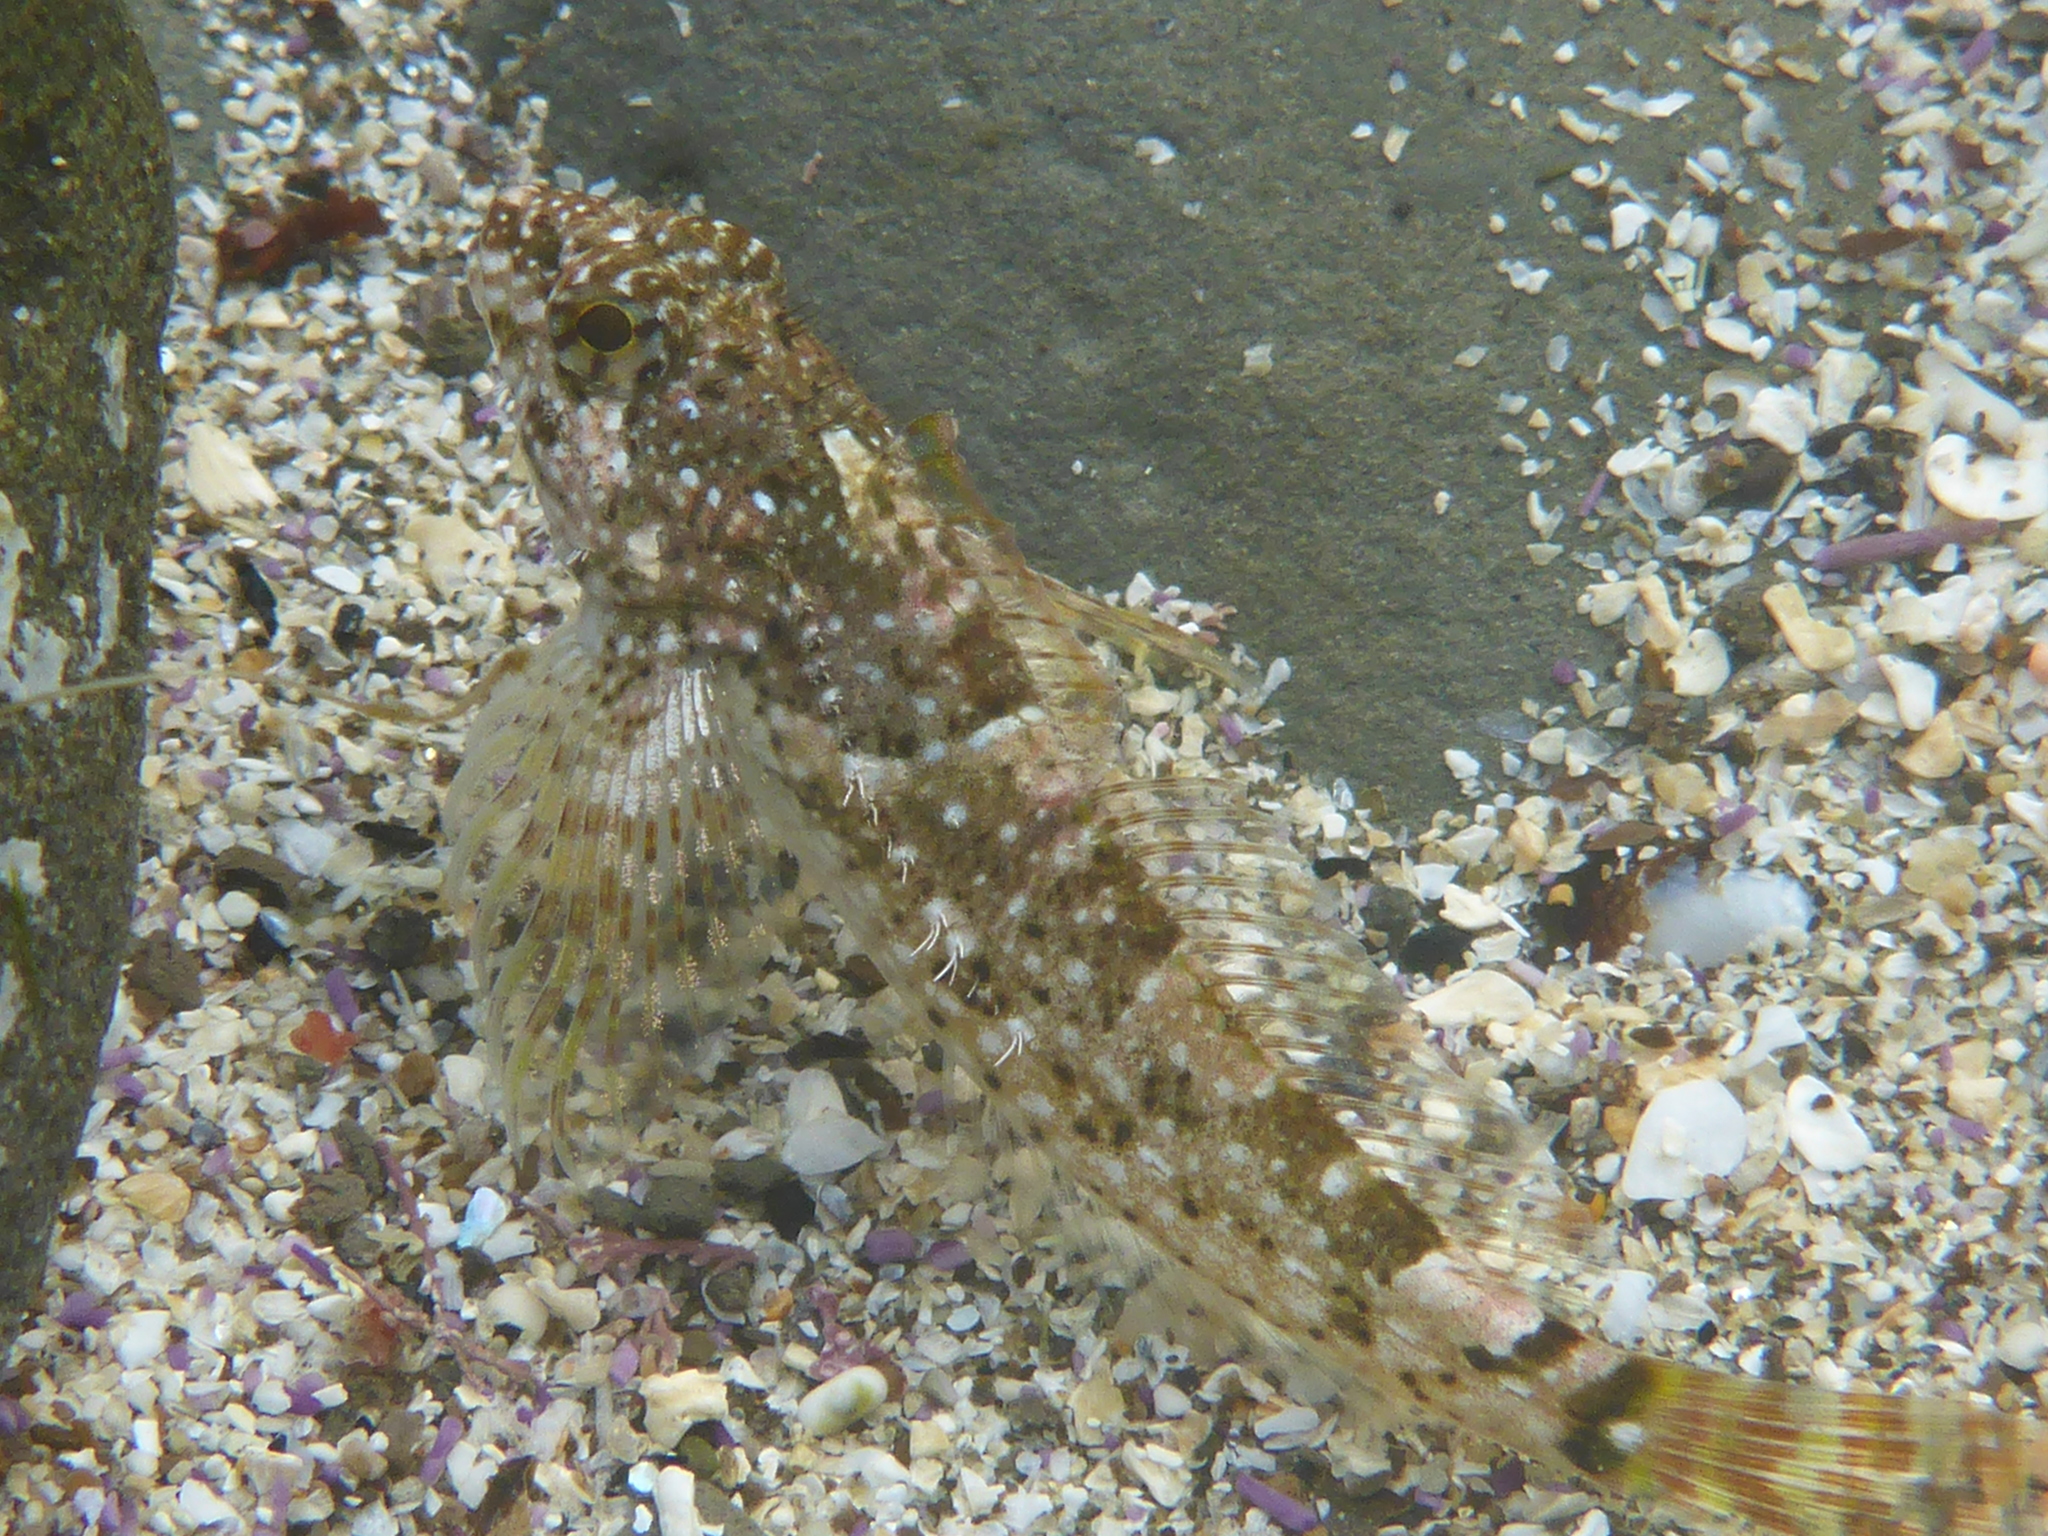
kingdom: Animalia
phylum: Chordata
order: Scorpaeniformes
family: Cottidae
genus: Clinocottus
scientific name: Clinocottus analis
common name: Woolly sculpin
